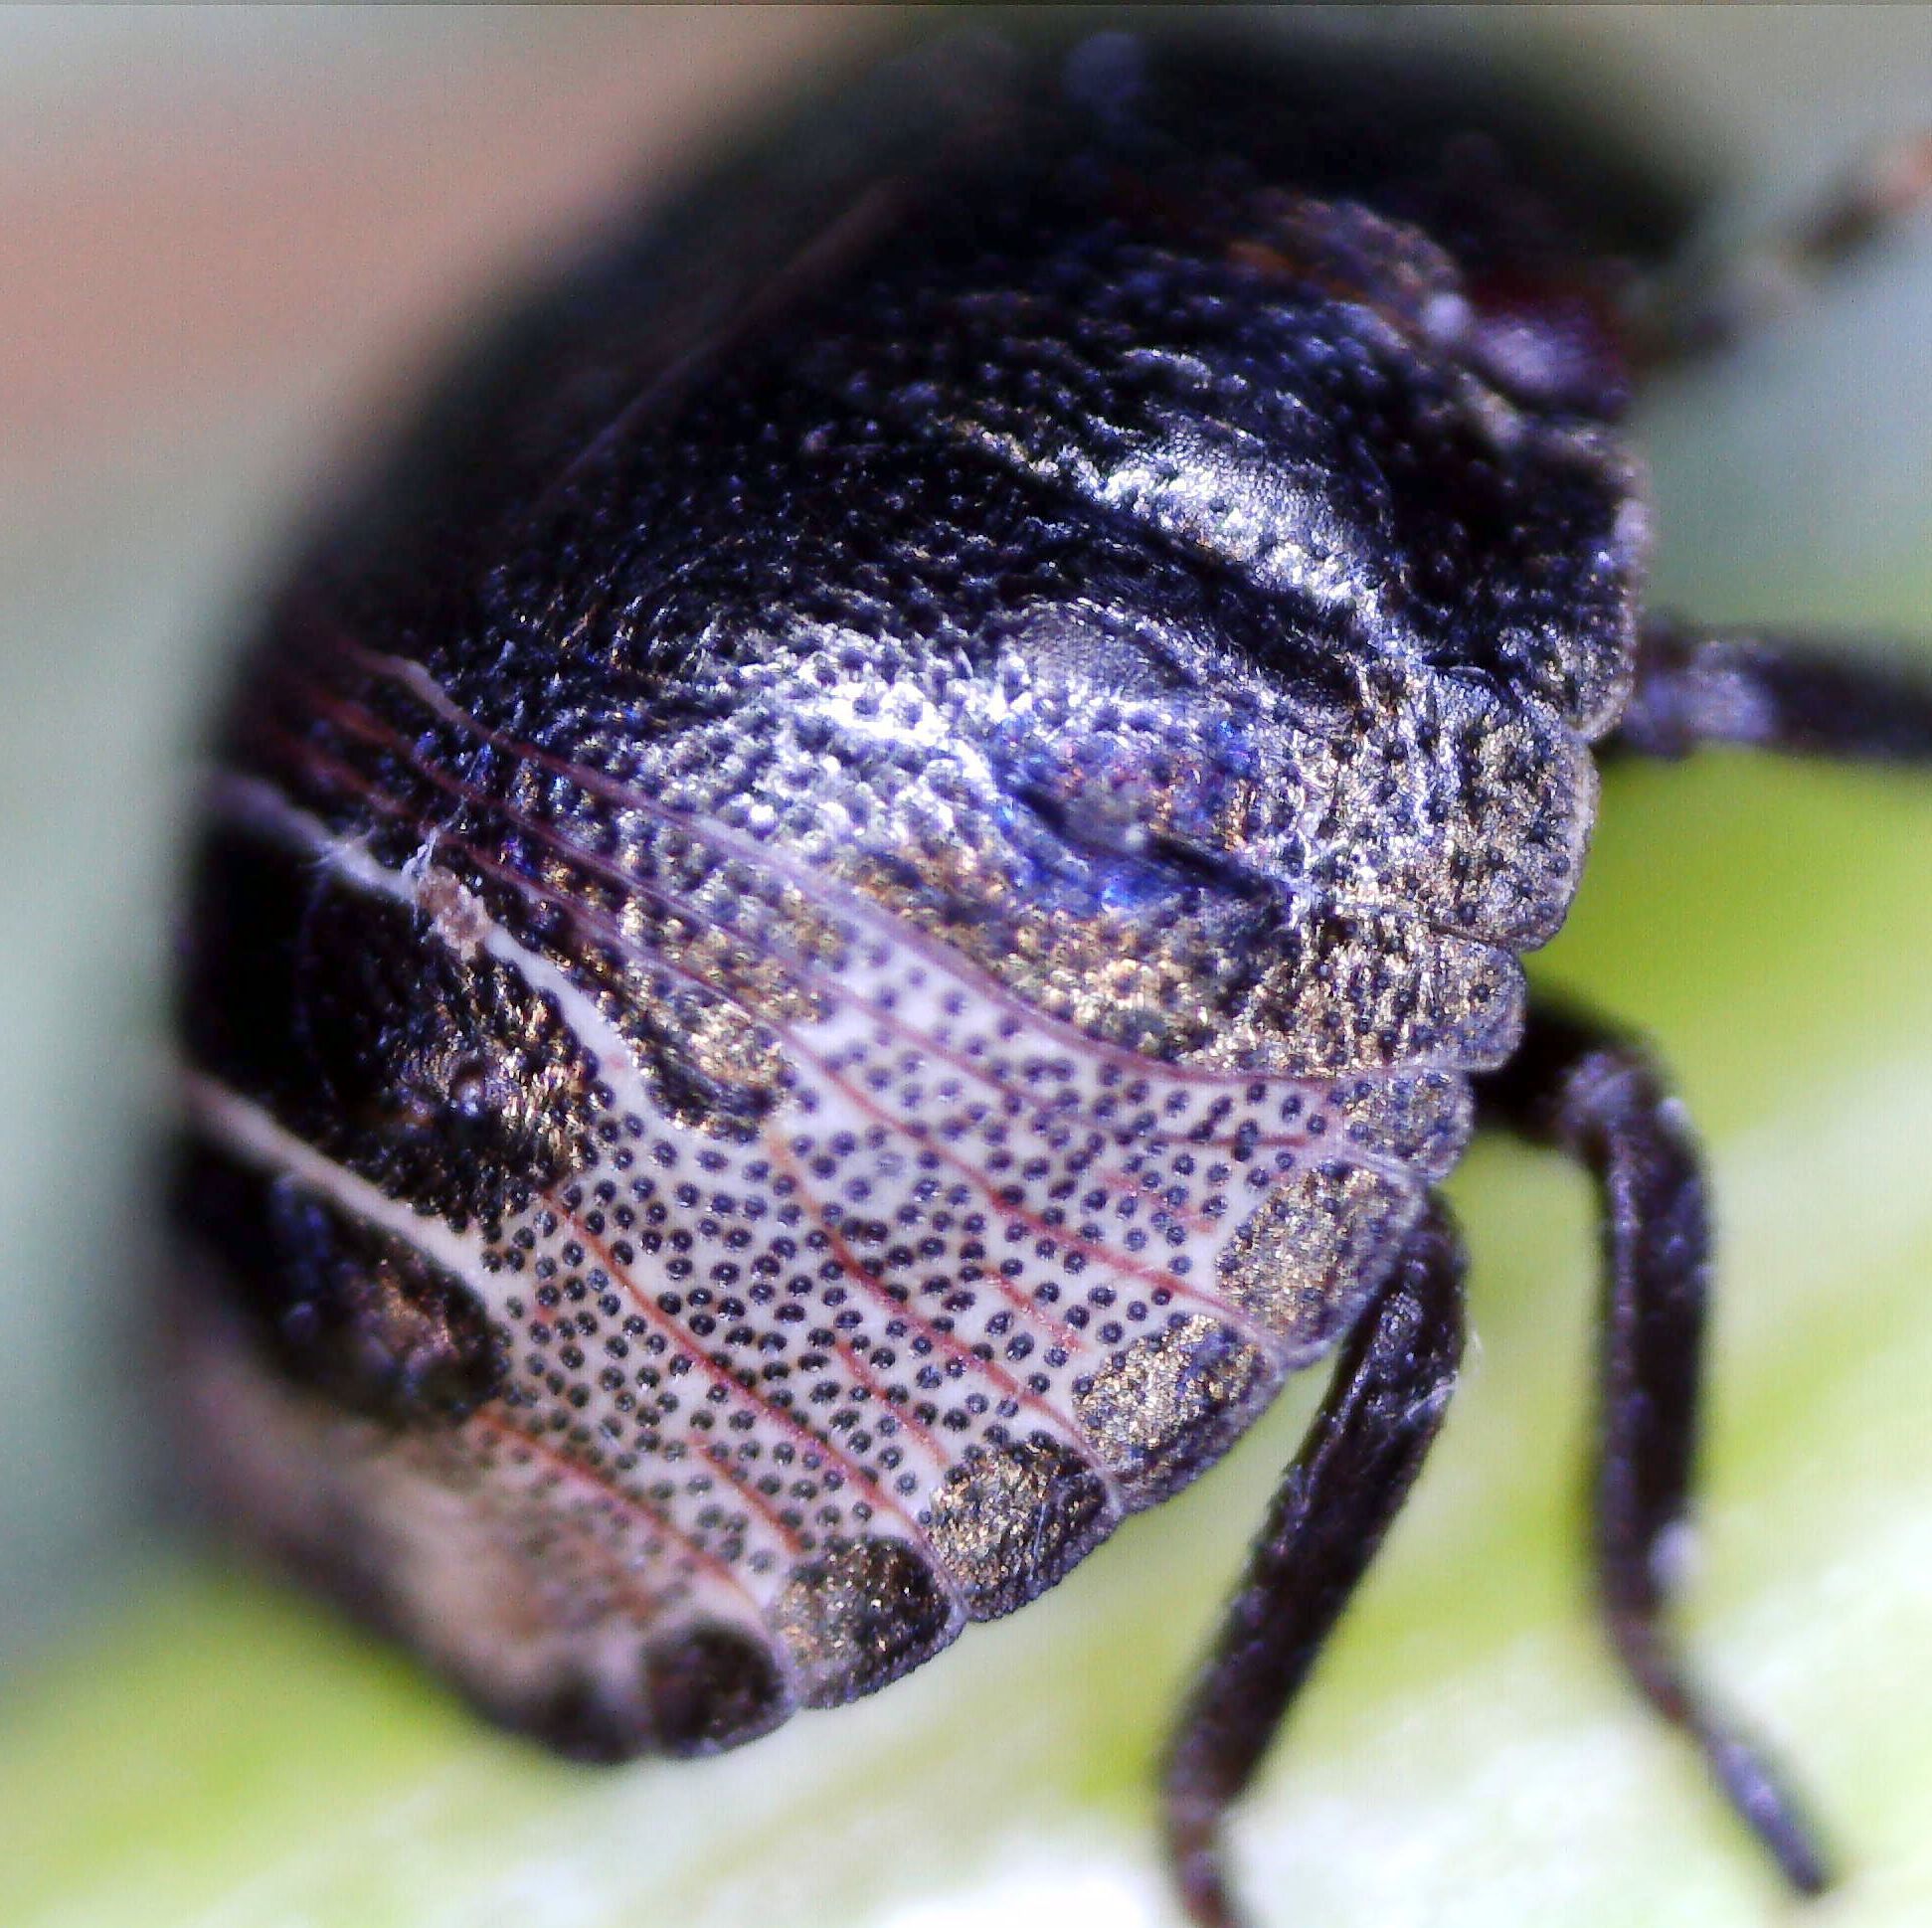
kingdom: Animalia
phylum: Arthropoda
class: Insecta
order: Hemiptera
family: Scutelleridae
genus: Eurygaster
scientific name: Eurygaster testudinaria
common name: Tortoise bug
